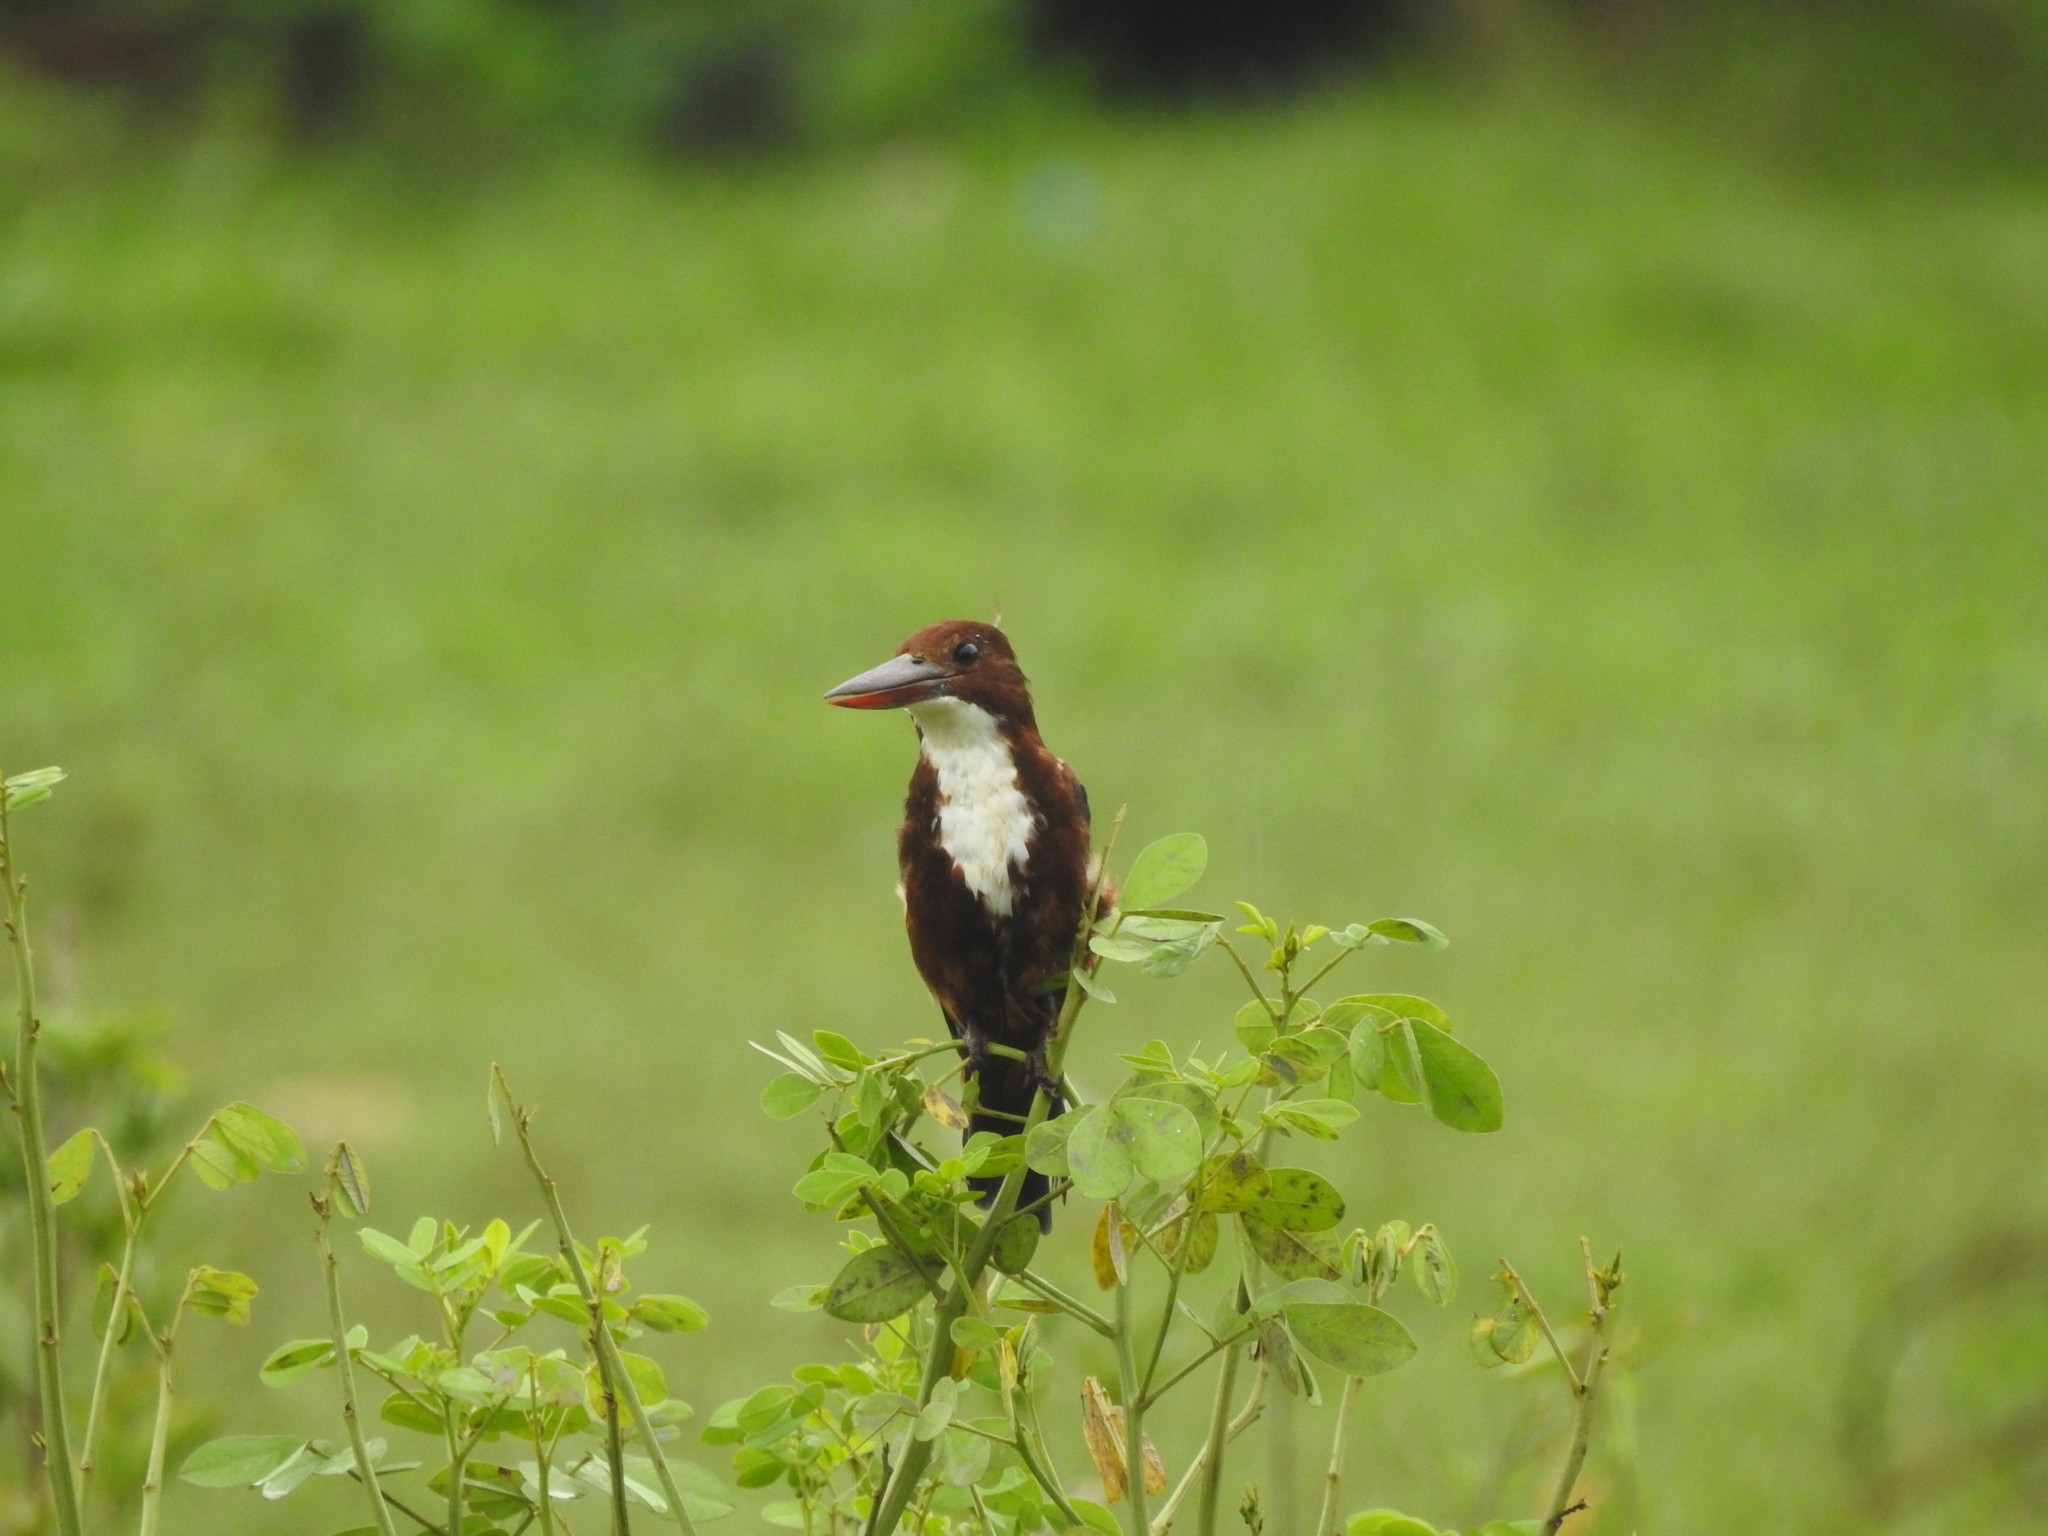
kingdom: Animalia
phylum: Chordata
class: Aves
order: Coraciiformes
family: Alcedinidae
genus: Halcyon
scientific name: Halcyon smyrnensis
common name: White-throated kingfisher
